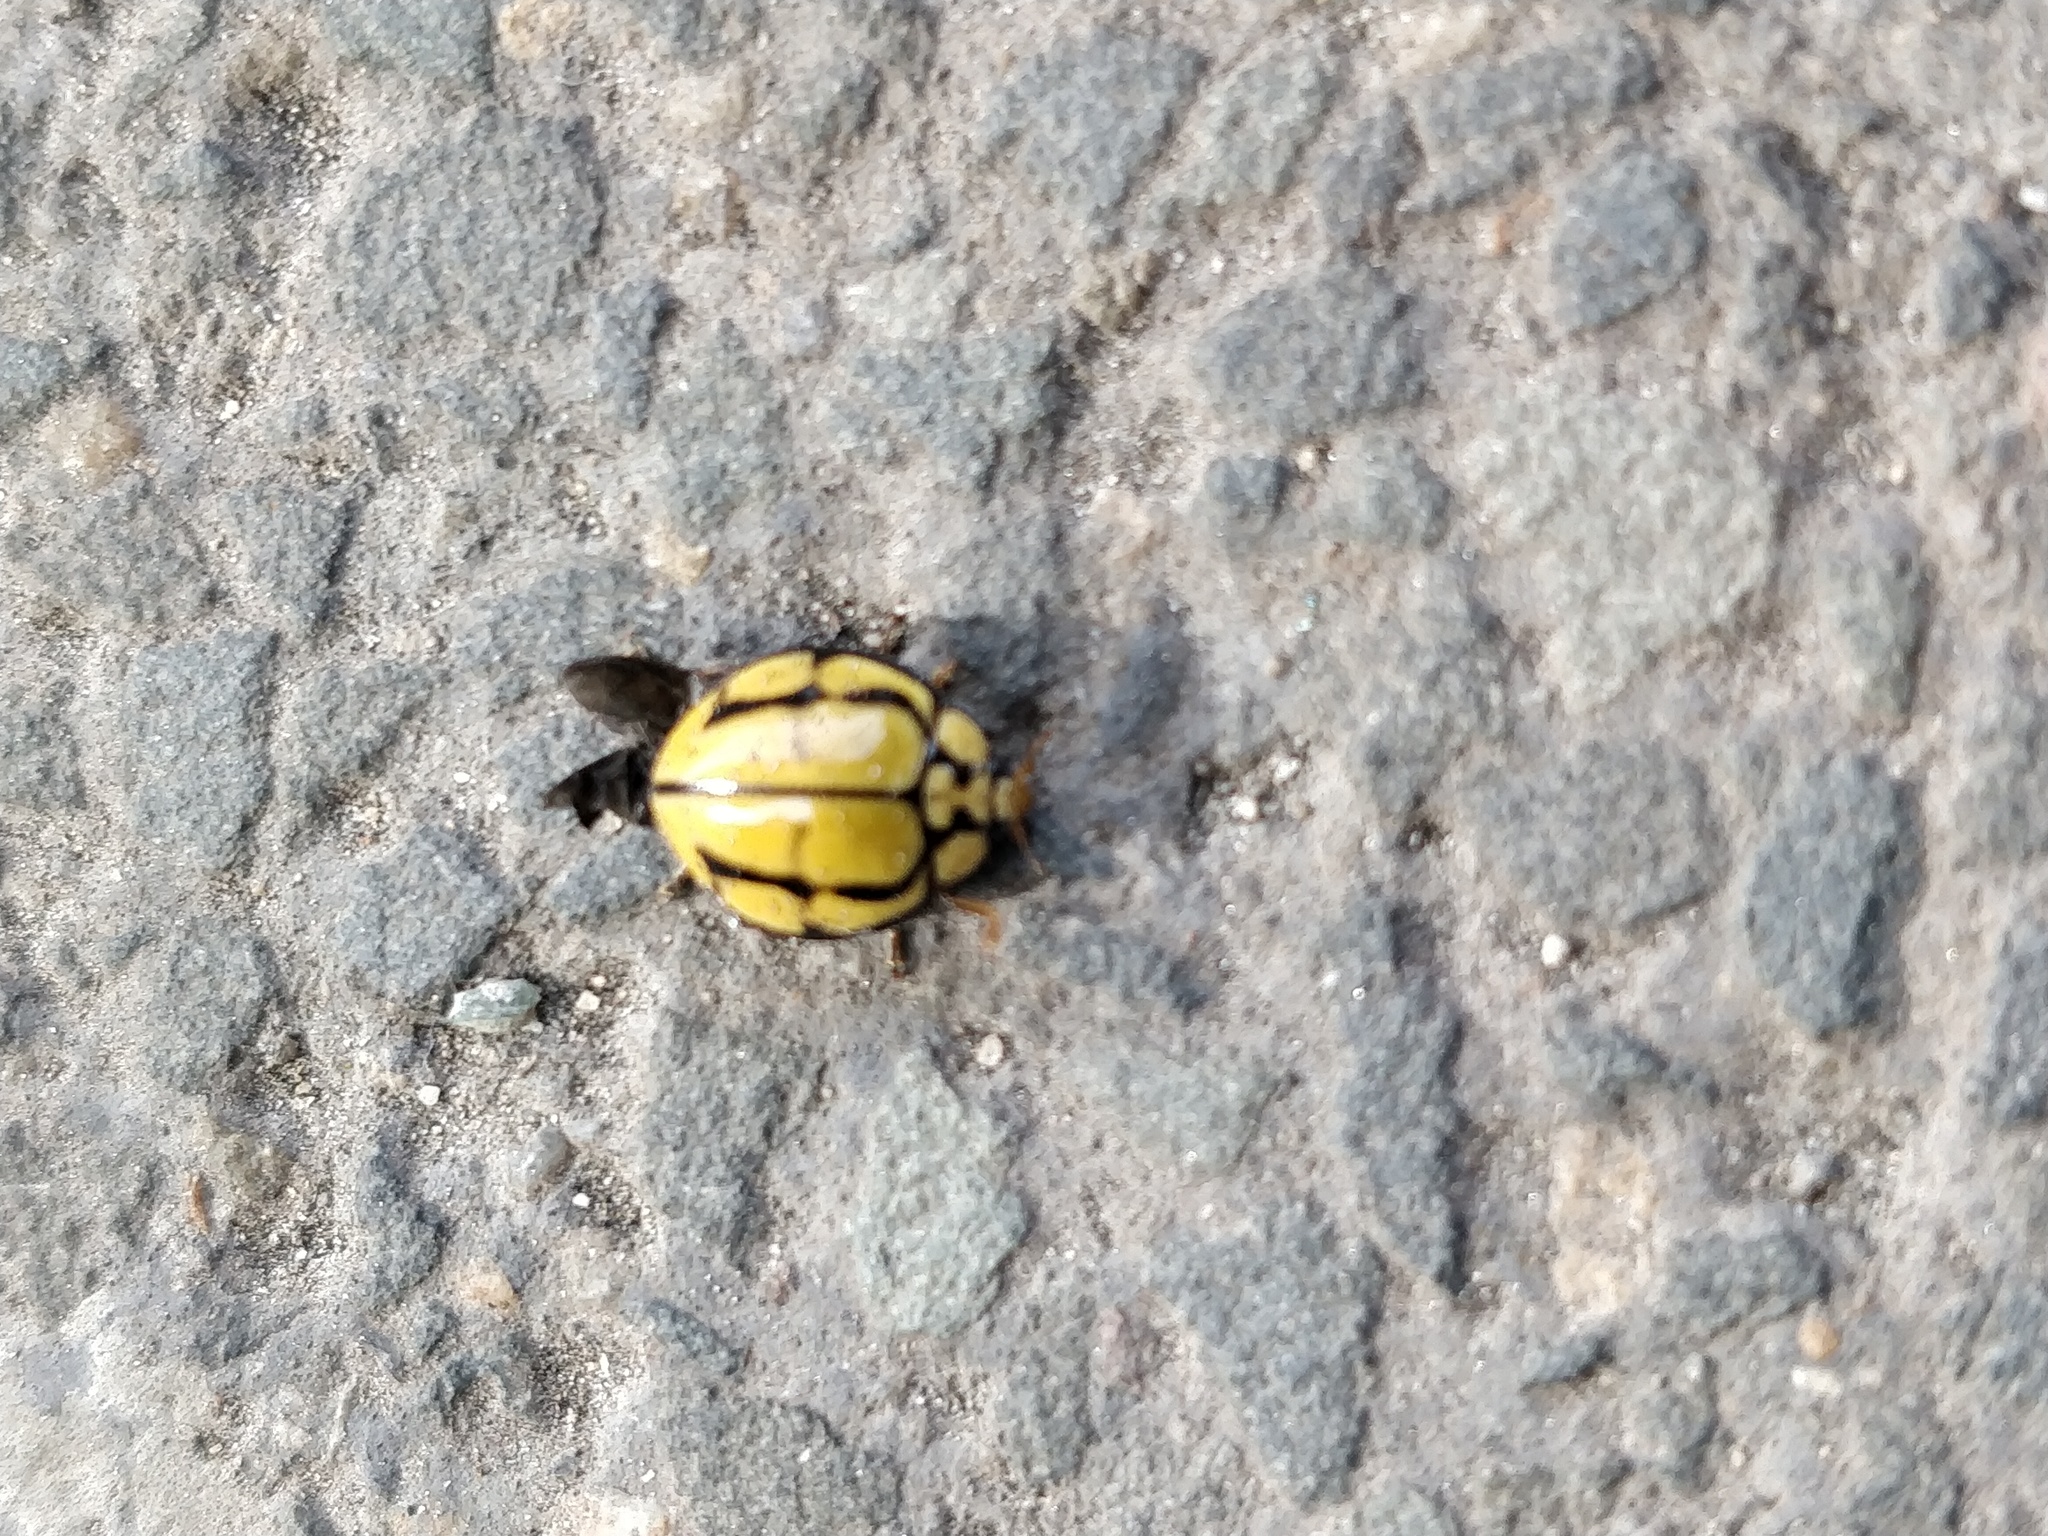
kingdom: Animalia
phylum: Arthropoda
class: Insecta
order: Coleoptera
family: Coccinellidae
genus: Harmonia
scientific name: Harmonia
